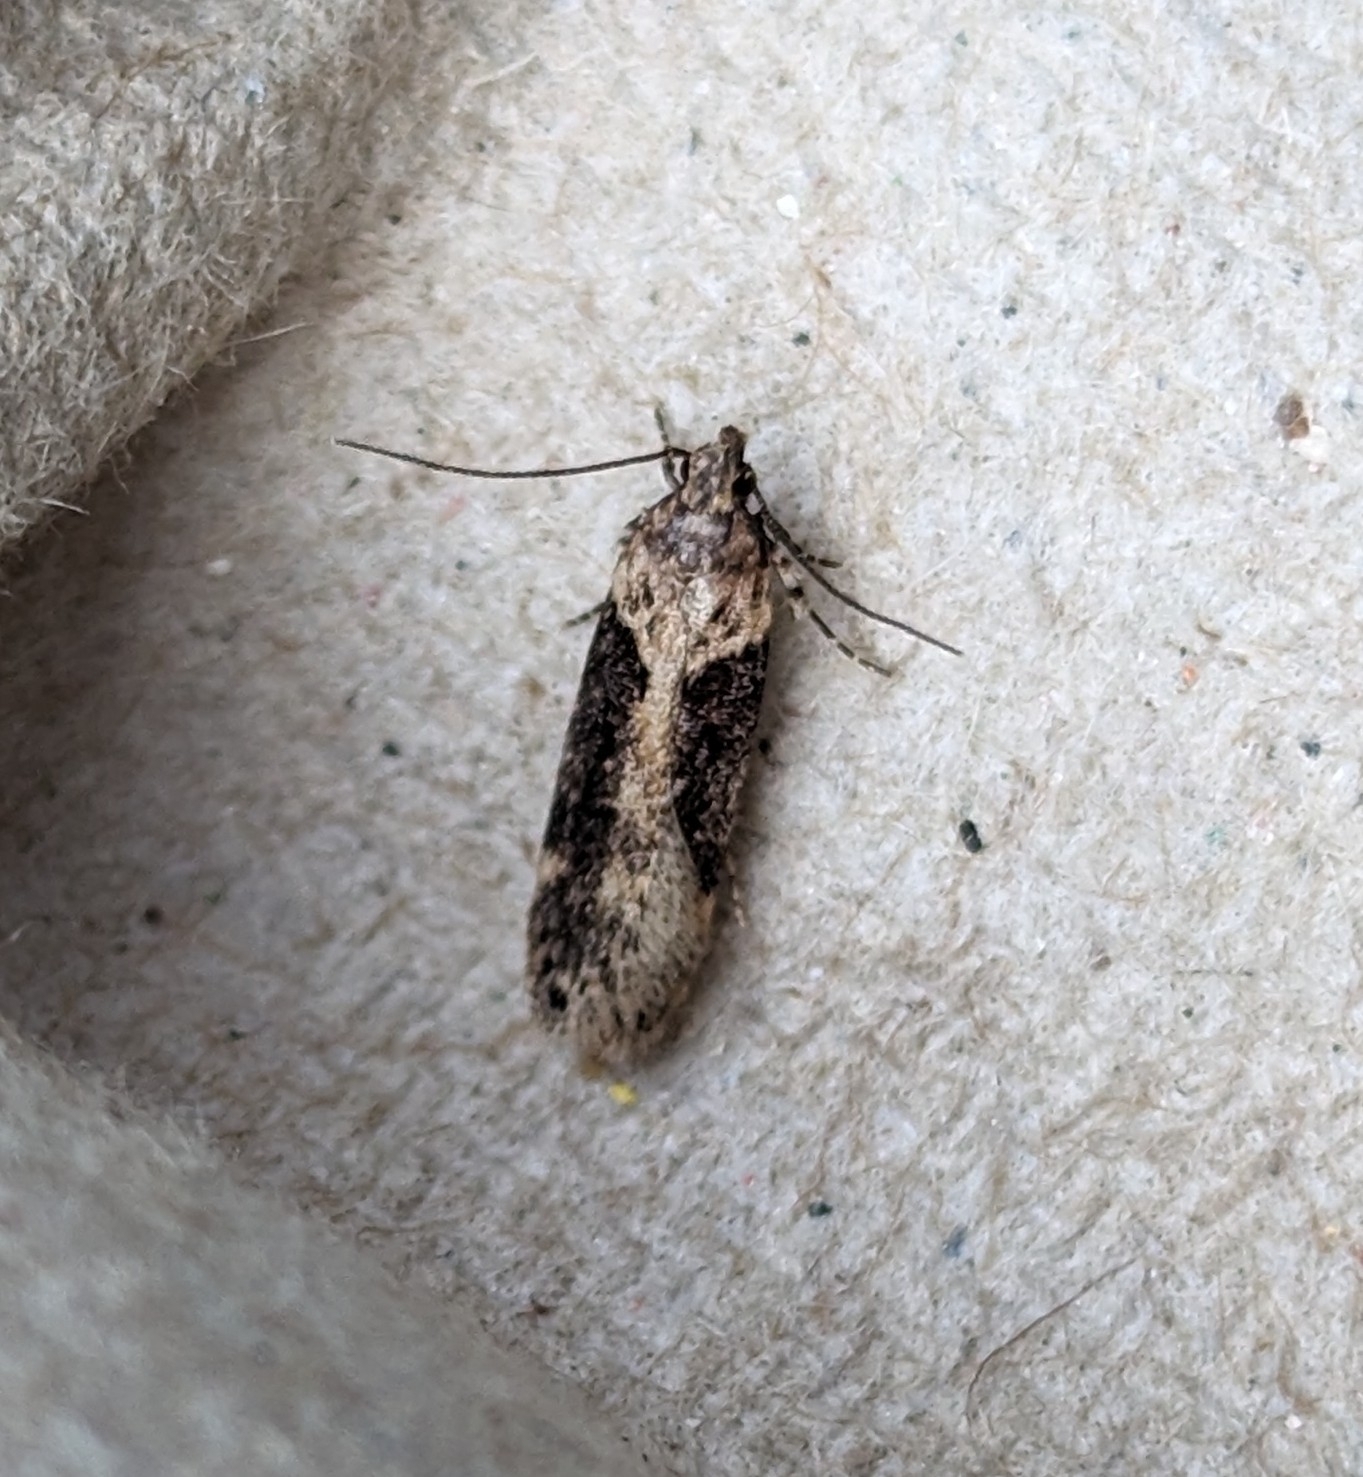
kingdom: Animalia
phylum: Arthropoda
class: Insecta
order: Lepidoptera
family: Gelechiidae
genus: Chionodes
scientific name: Chionodes mediofuscella
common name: Black-smudged chionodes moth
